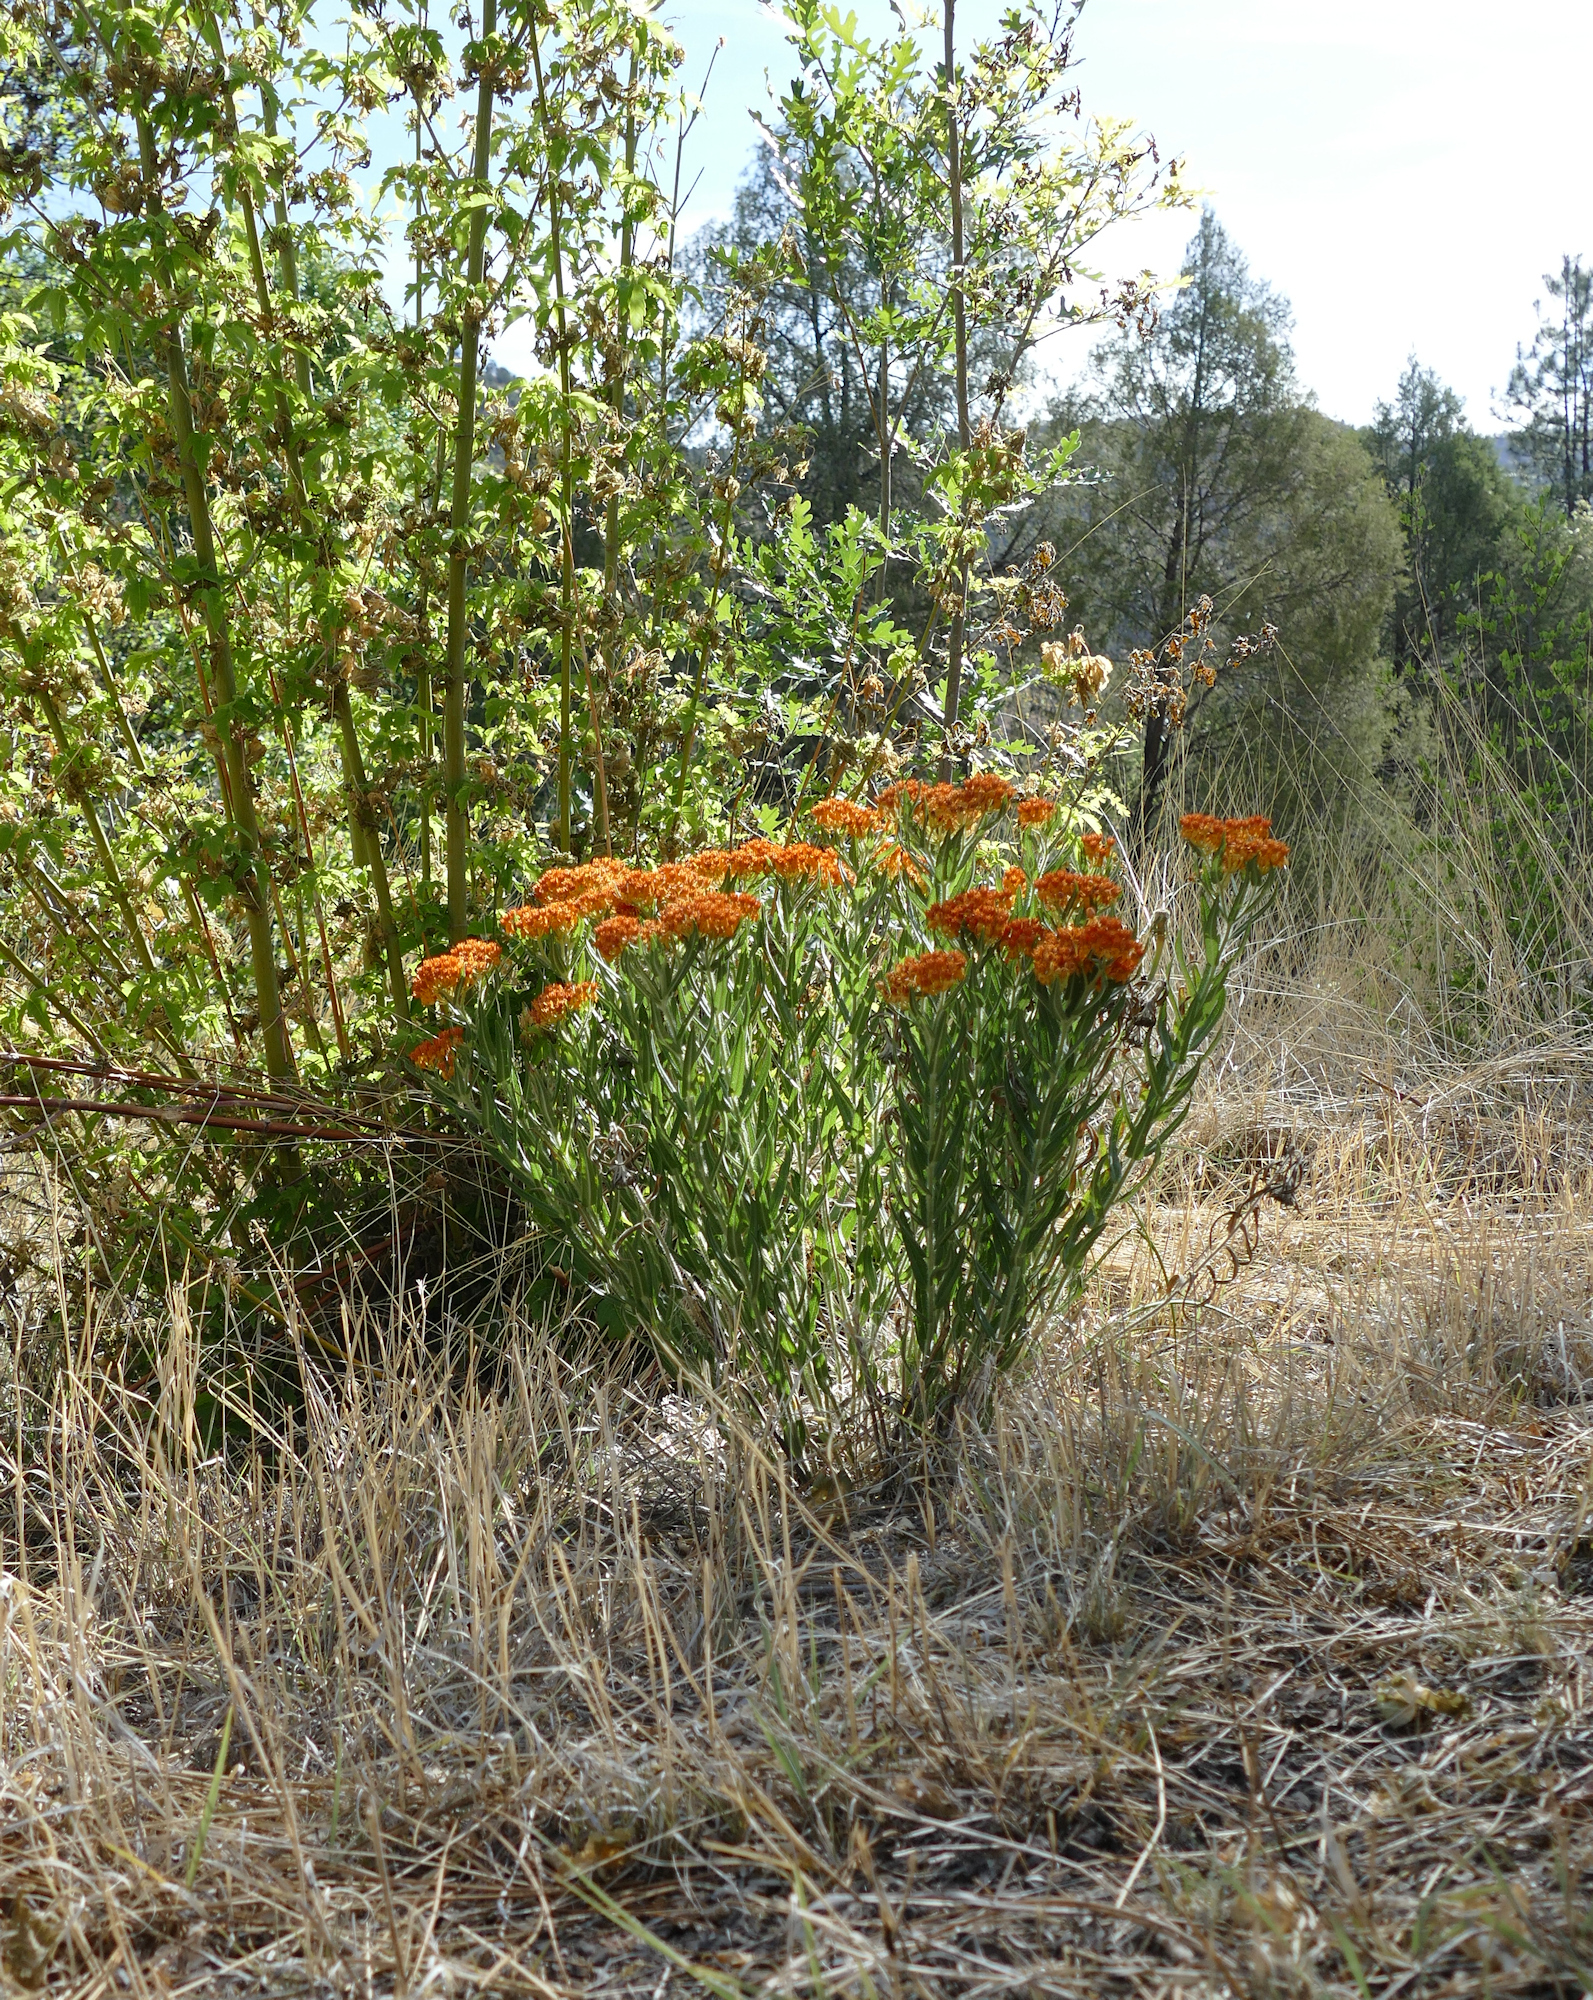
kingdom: Plantae
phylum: Tracheophyta
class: Magnoliopsida
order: Gentianales
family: Apocynaceae
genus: Asclepias
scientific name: Asclepias tuberosa
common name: Butterfly milkweed
